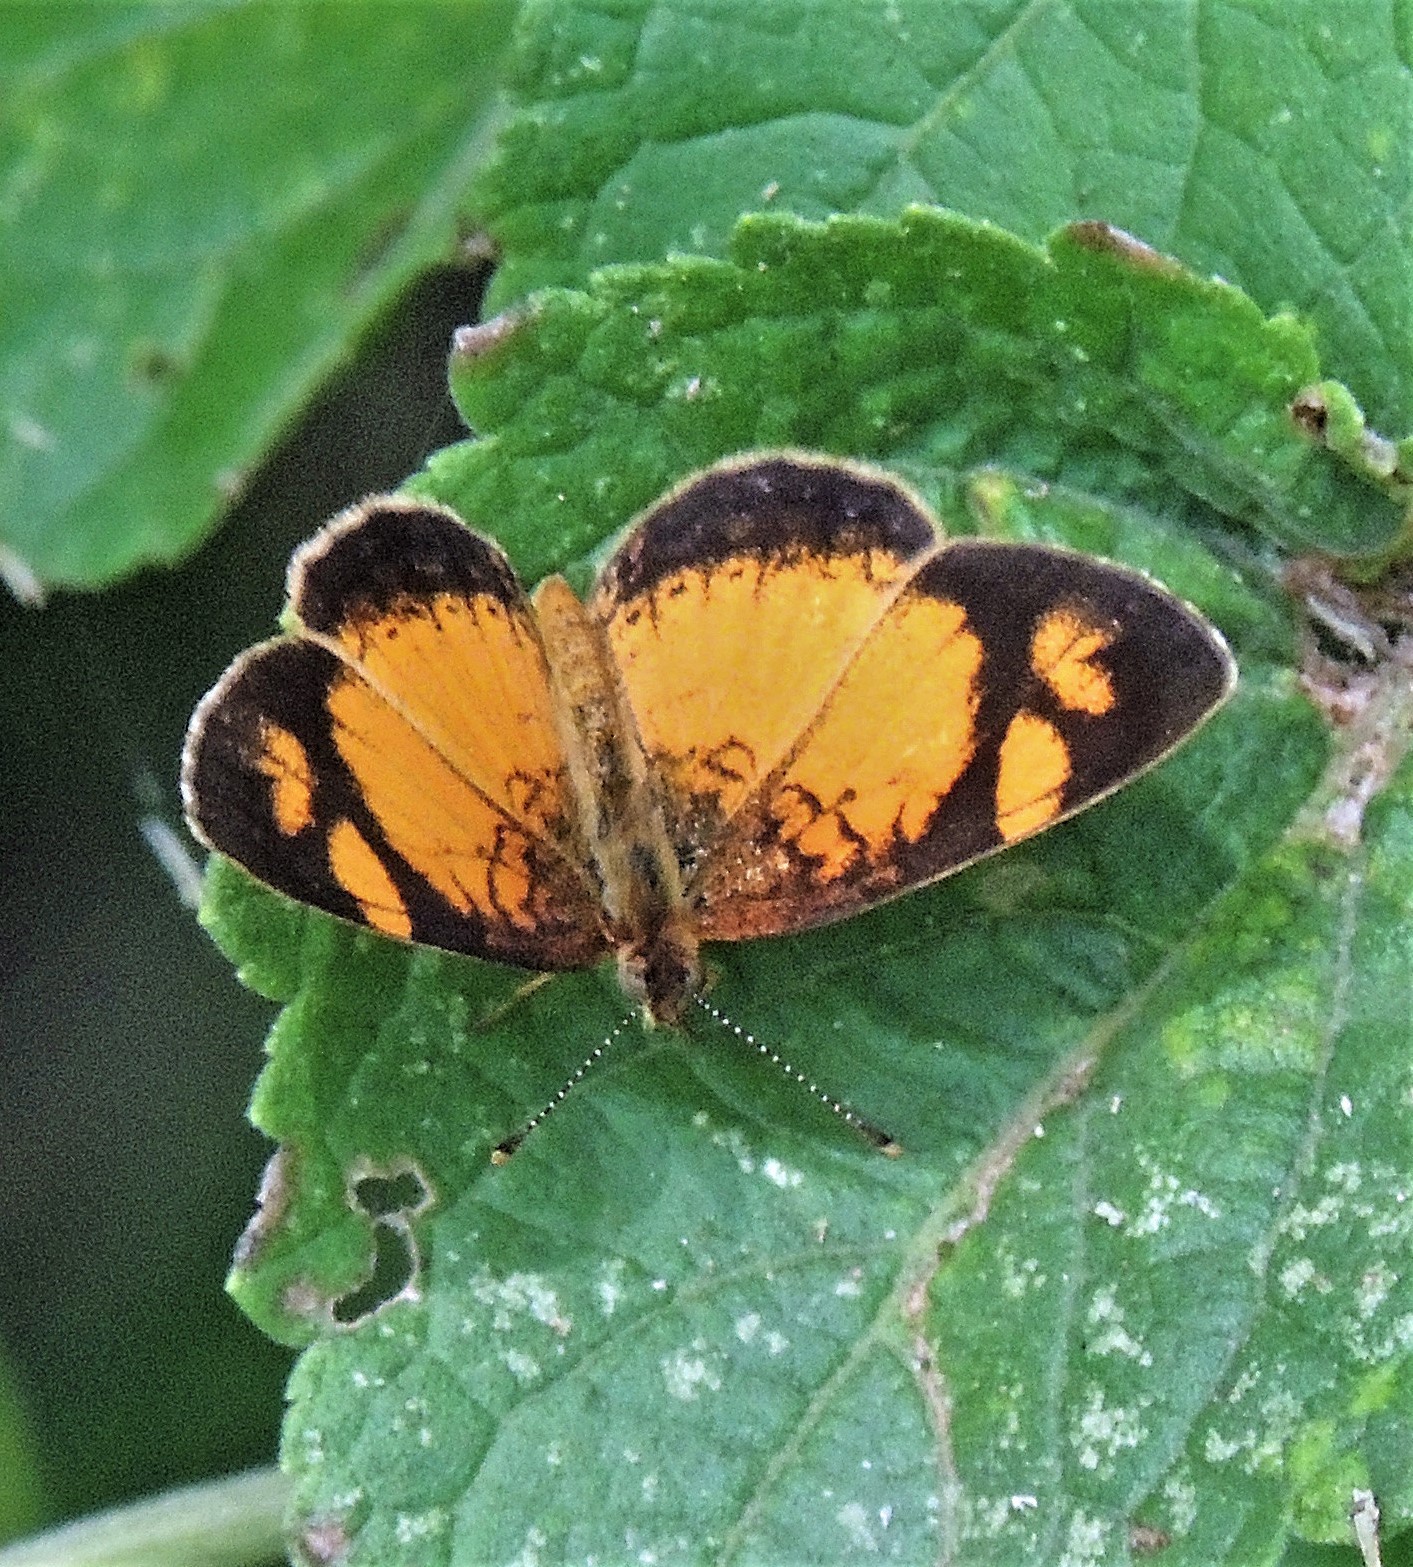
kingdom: Animalia
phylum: Arthropoda
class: Insecta
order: Lepidoptera
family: Nymphalidae
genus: Tegosa
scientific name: Tegosa claudina
